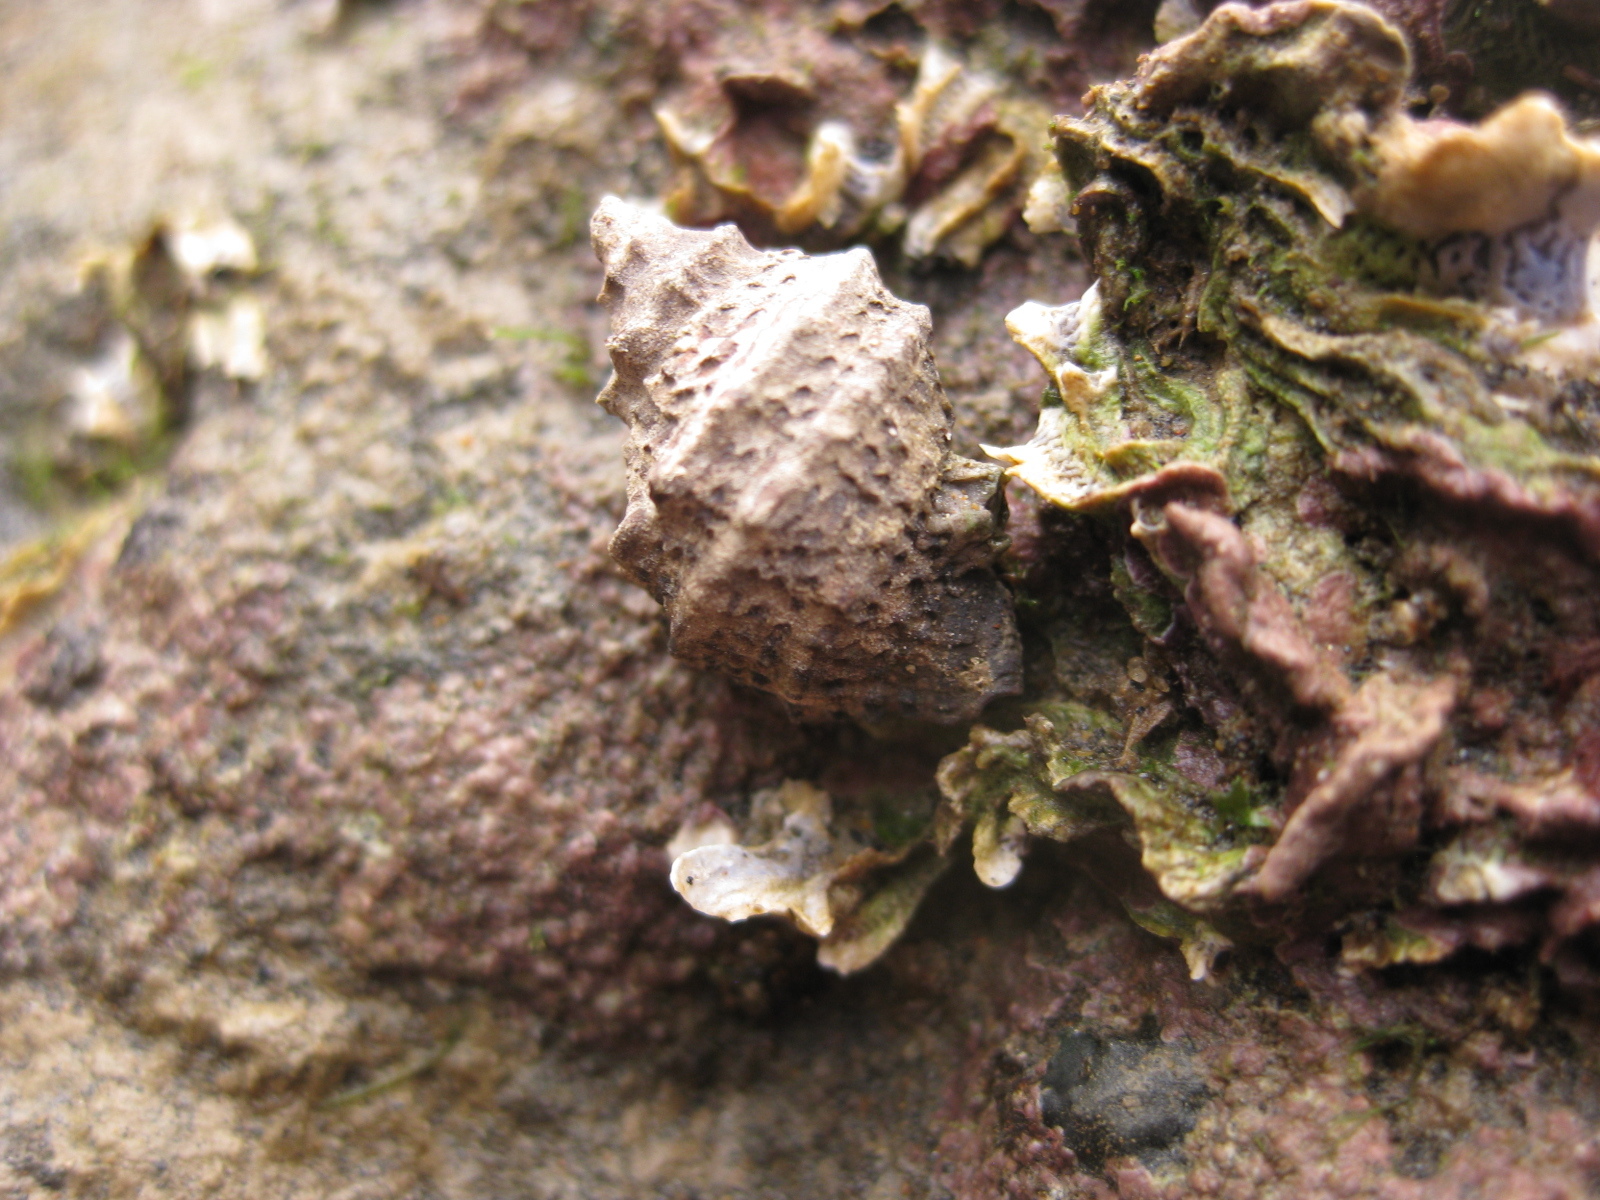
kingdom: Animalia
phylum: Mollusca
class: Gastropoda
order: Neogastropoda
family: Muricidae
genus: Haustrum
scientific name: Haustrum scobina
